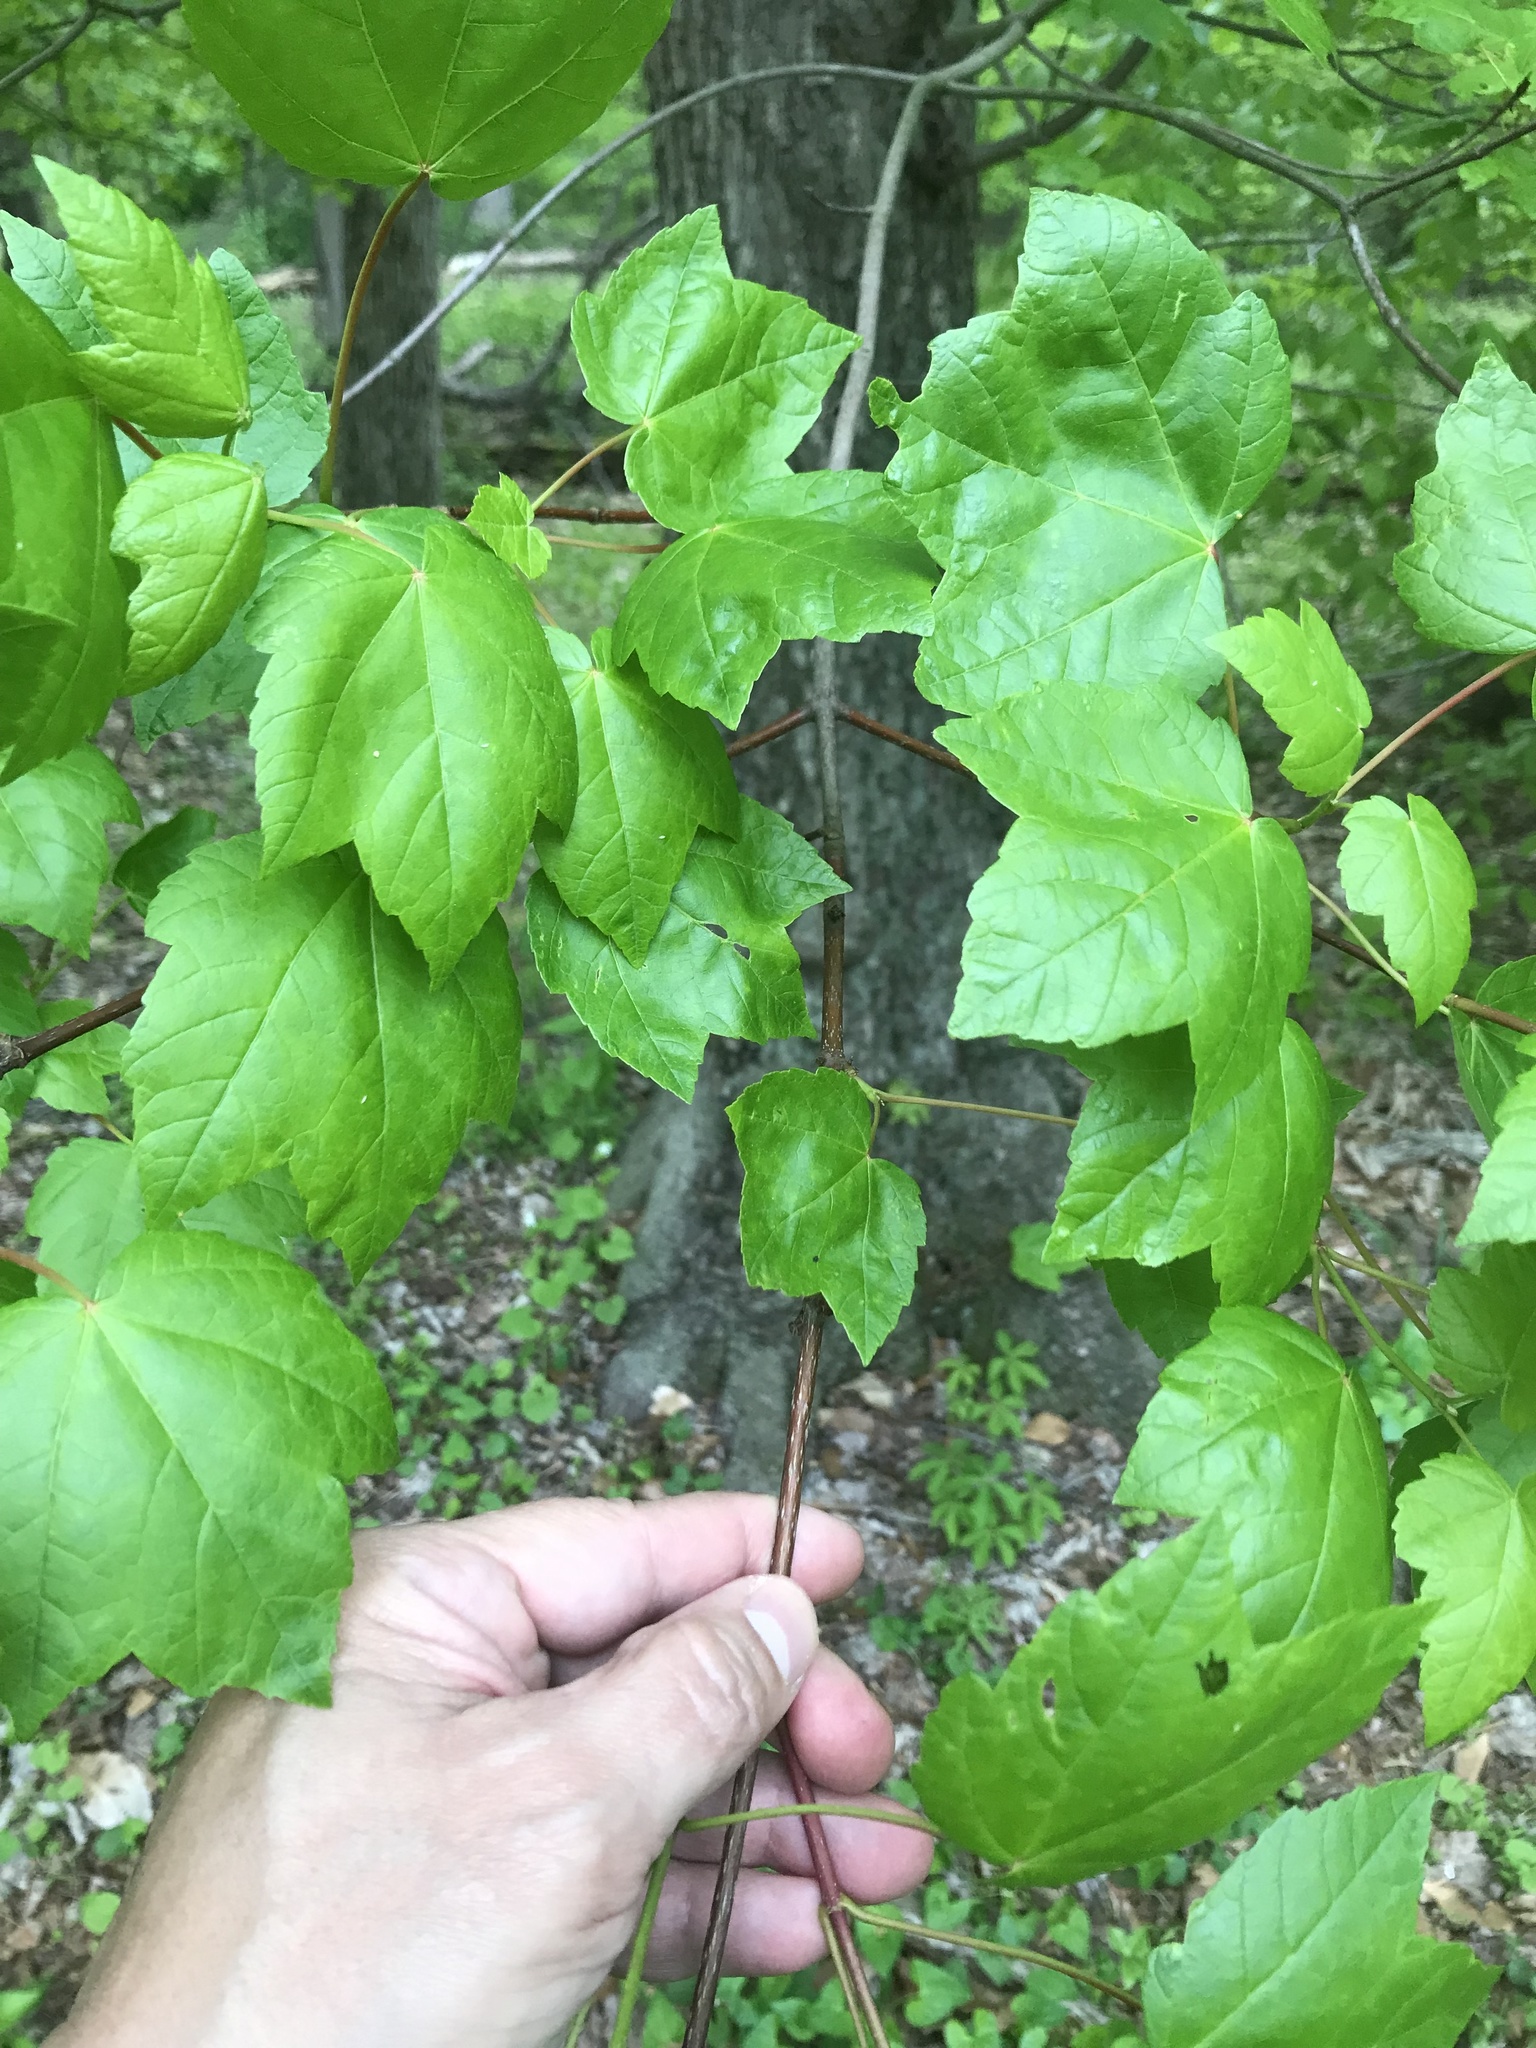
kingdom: Plantae
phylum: Tracheophyta
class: Magnoliopsida
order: Sapindales
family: Sapindaceae
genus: Acer
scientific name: Acer rubrum
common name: Red maple
